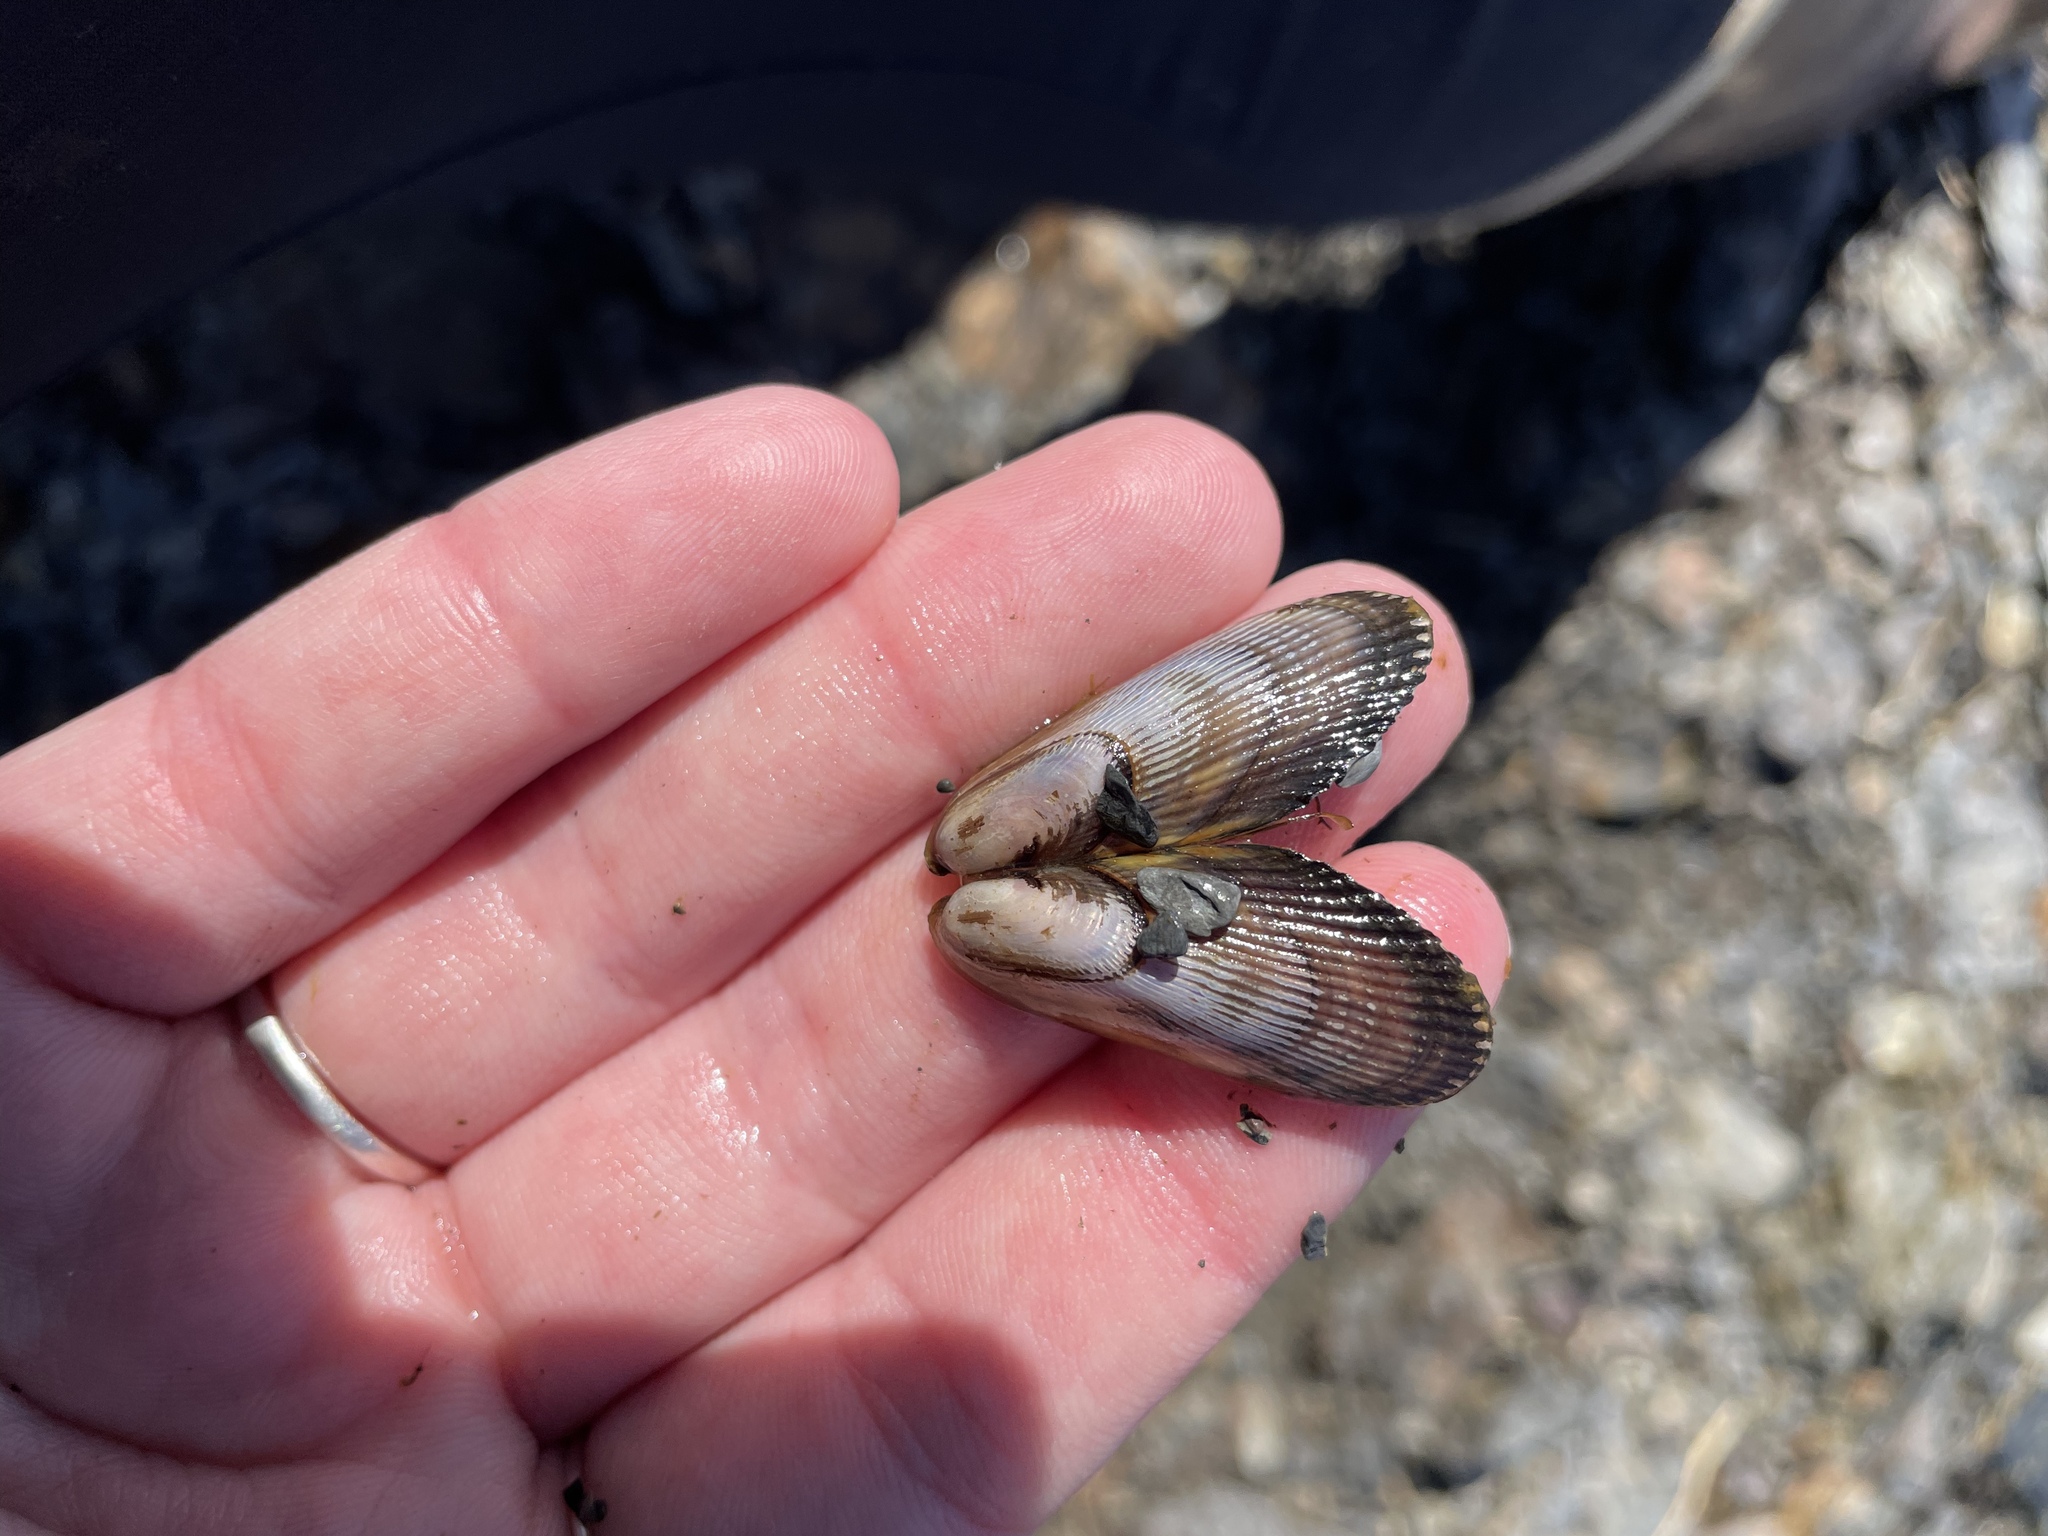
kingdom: Animalia
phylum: Mollusca
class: Bivalvia
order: Mytilida
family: Mytilidae
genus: Geukensia
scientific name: Geukensia demissa
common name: Ribbed mussel
